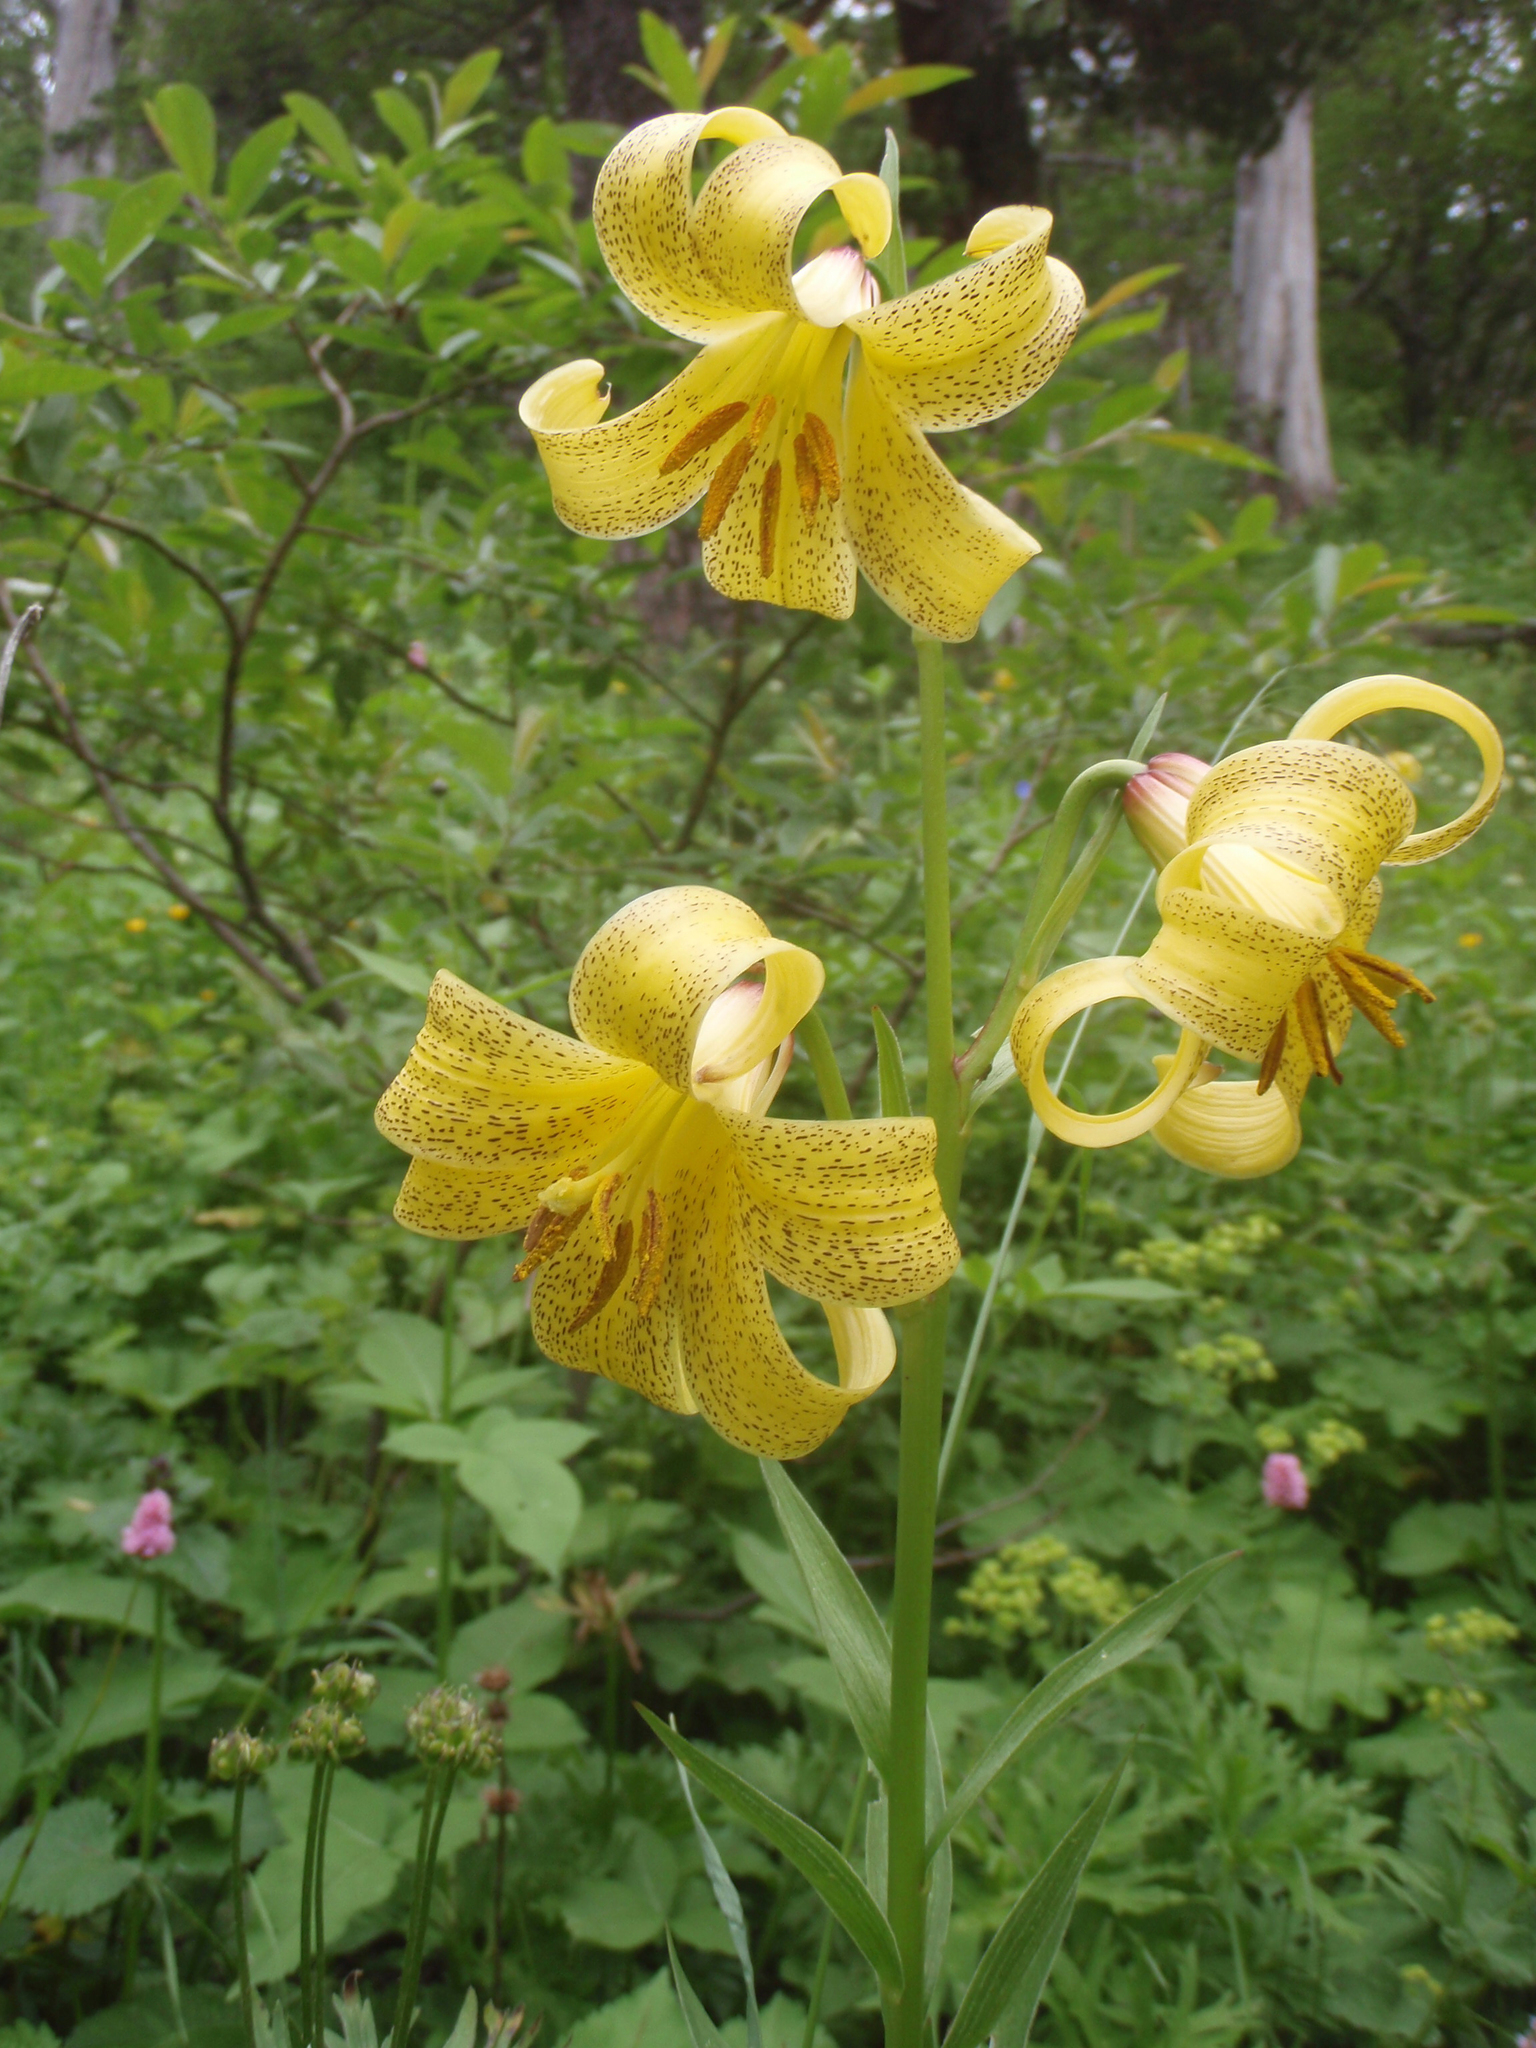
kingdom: Plantae
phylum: Tracheophyta
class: Liliopsida
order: Liliales
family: Liliaceae
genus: Lilium
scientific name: Lilium monadelphum
